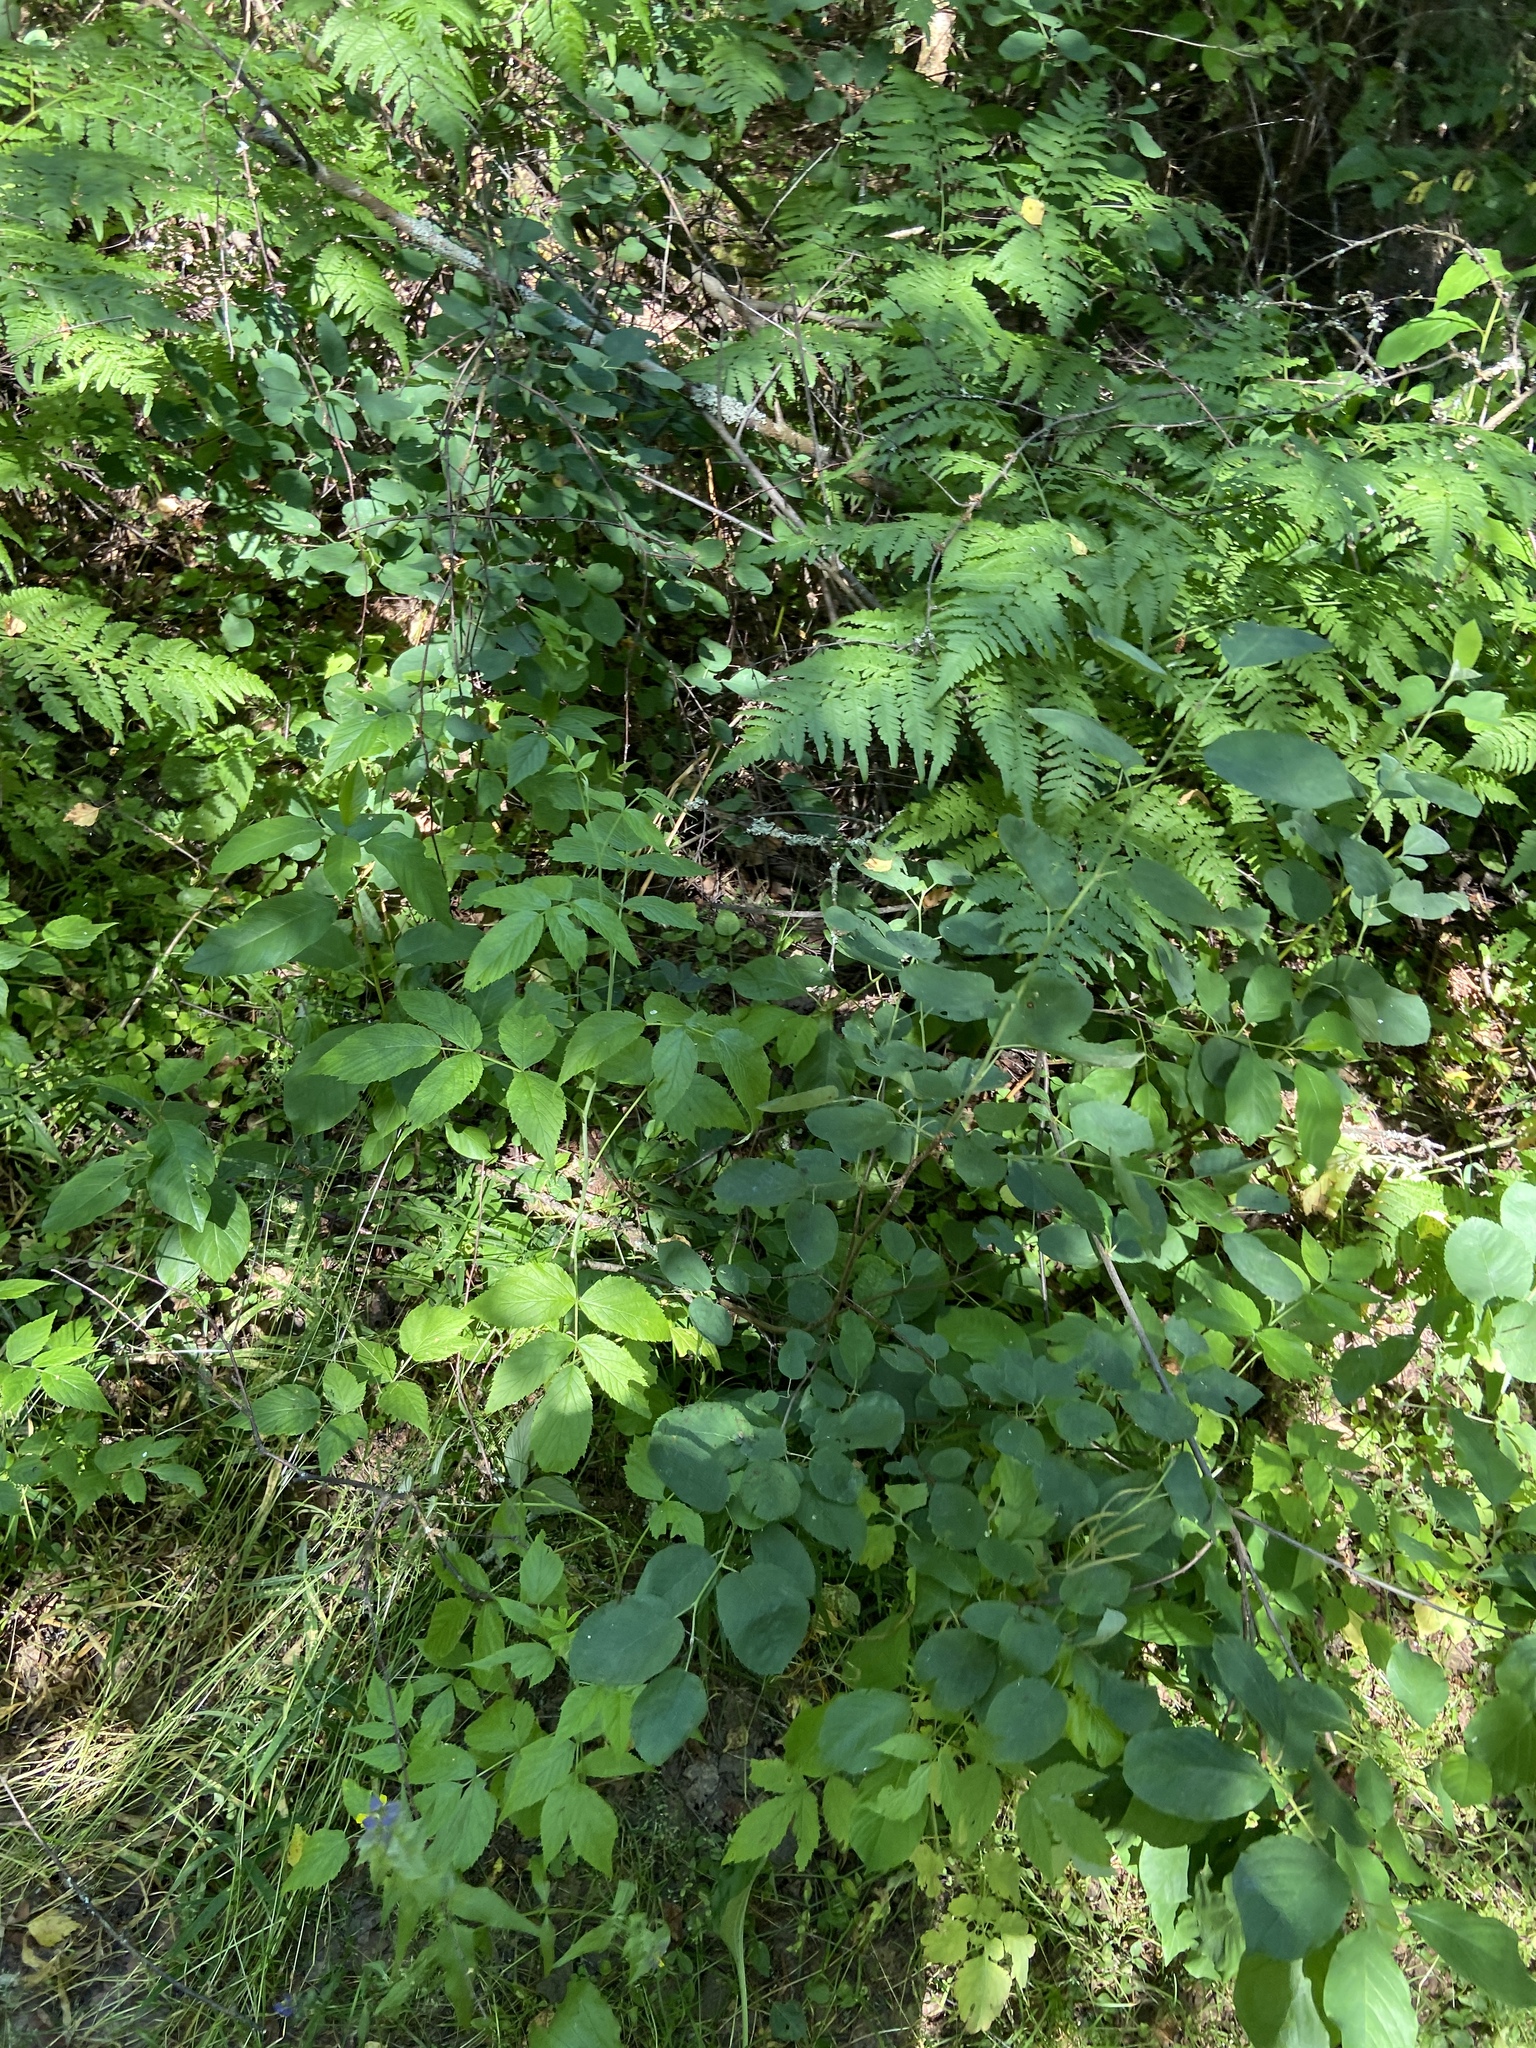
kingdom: Plantae
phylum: Tracheophyta
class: Magnoliopsida
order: Rosales
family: Rosaceae
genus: Amelanchier
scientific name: Amelanchier
